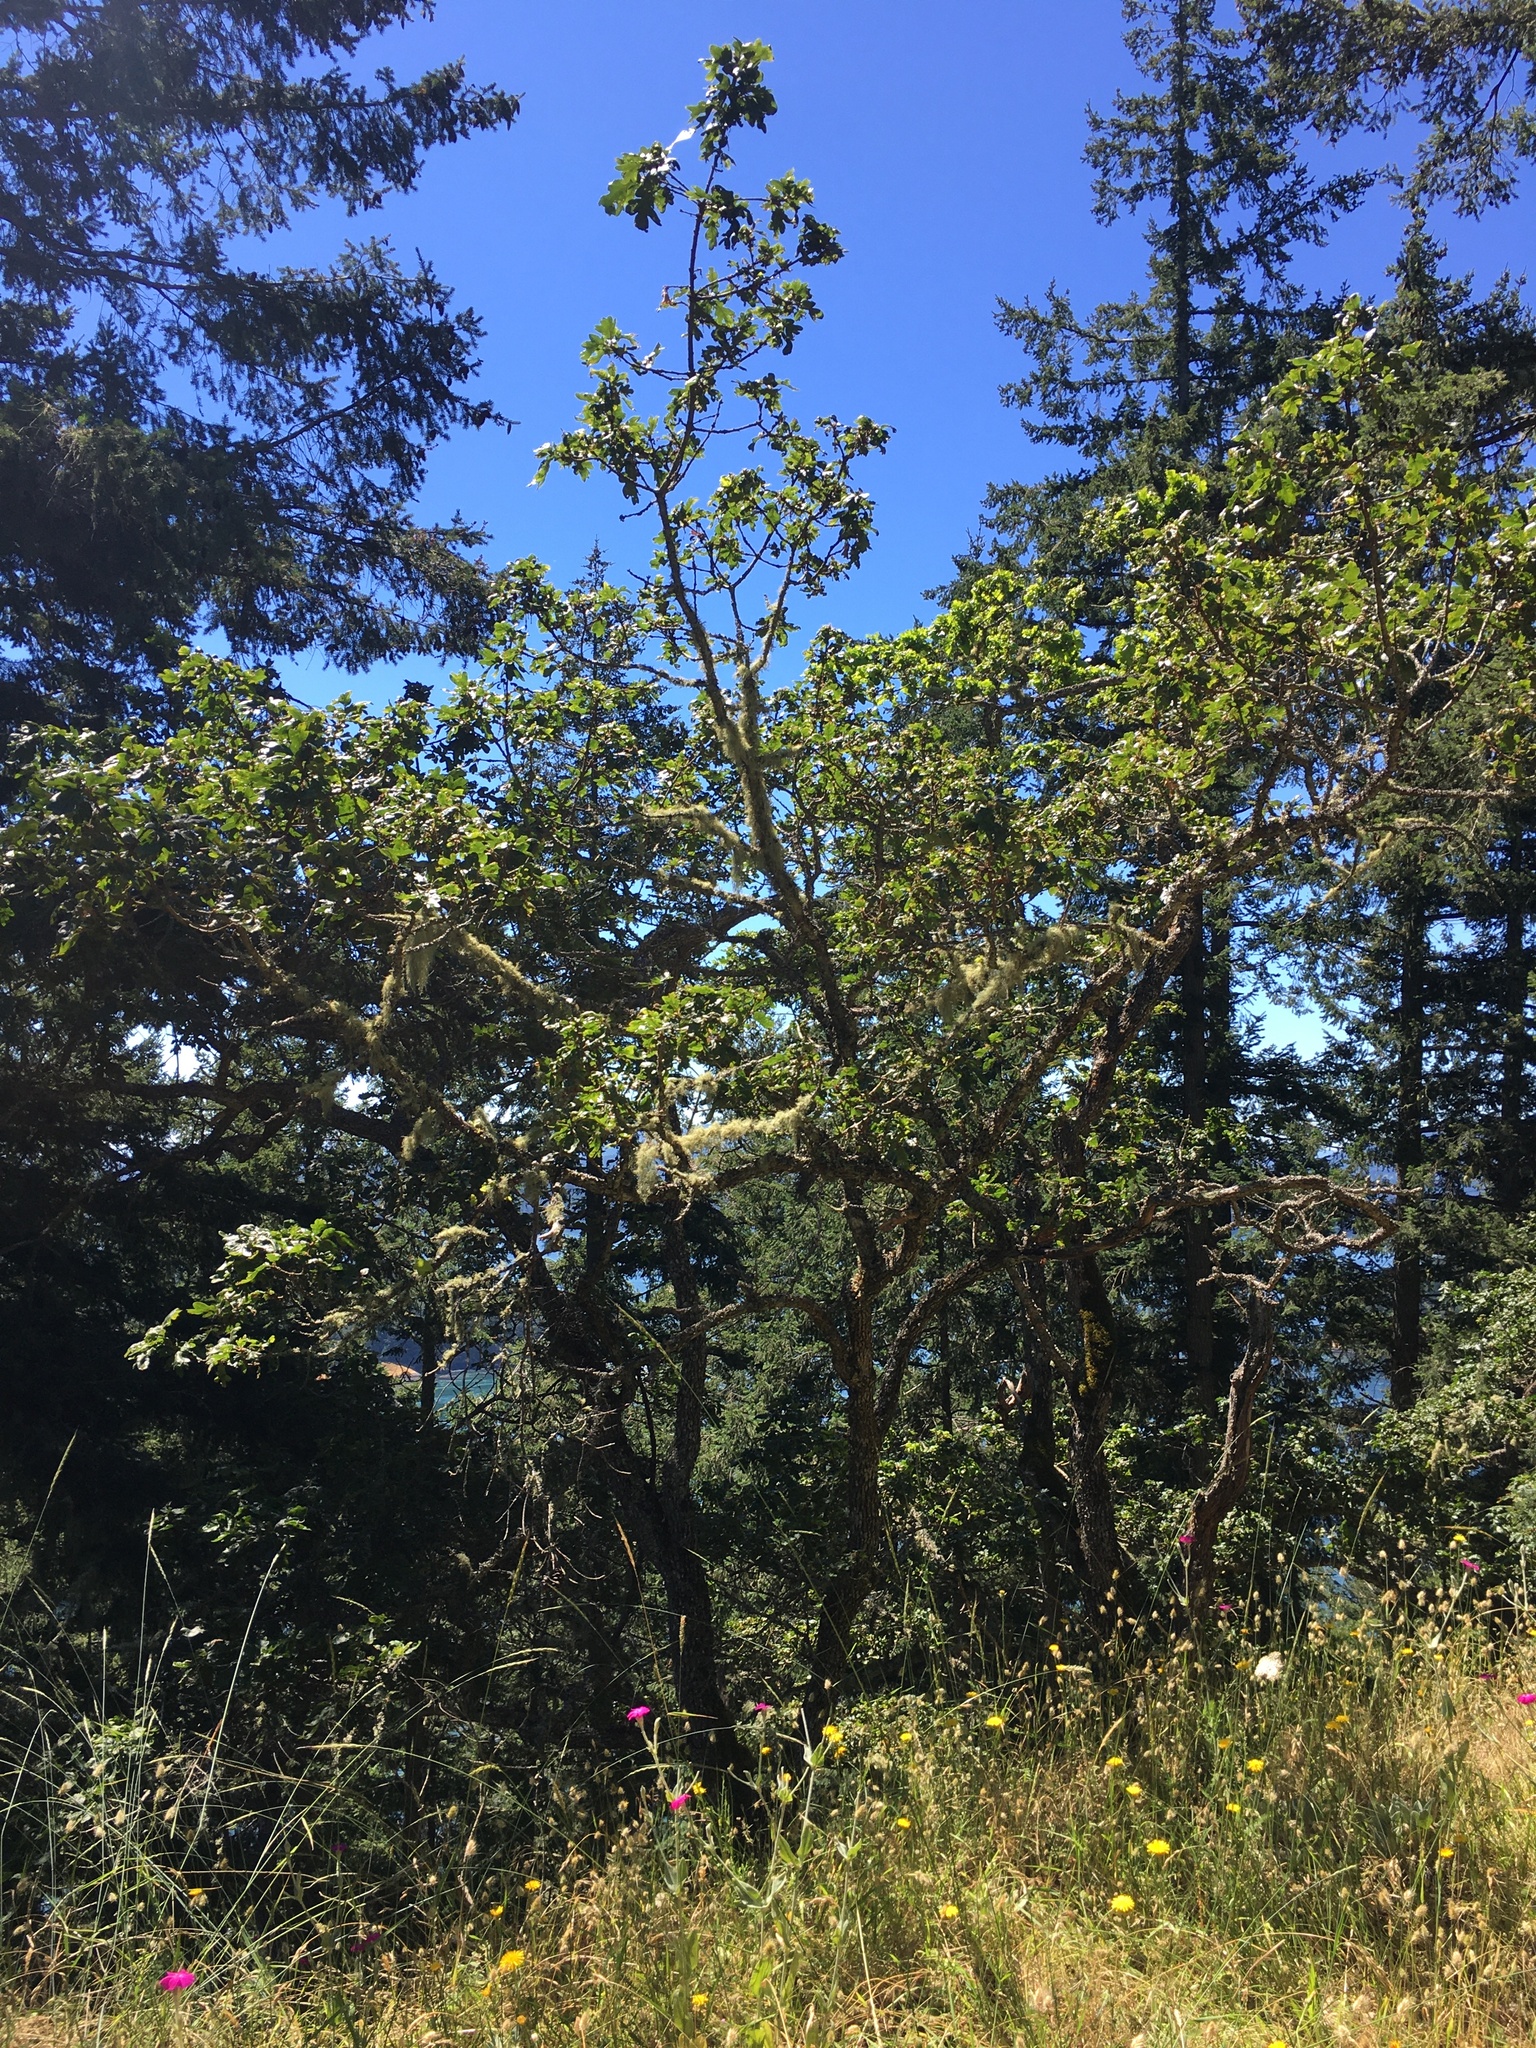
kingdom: Plantae
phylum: Tracheophyta
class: Magnoliopsida
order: Fagales
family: Fagaceae
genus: Quercus
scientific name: Quercus garryana
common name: Garry oak
